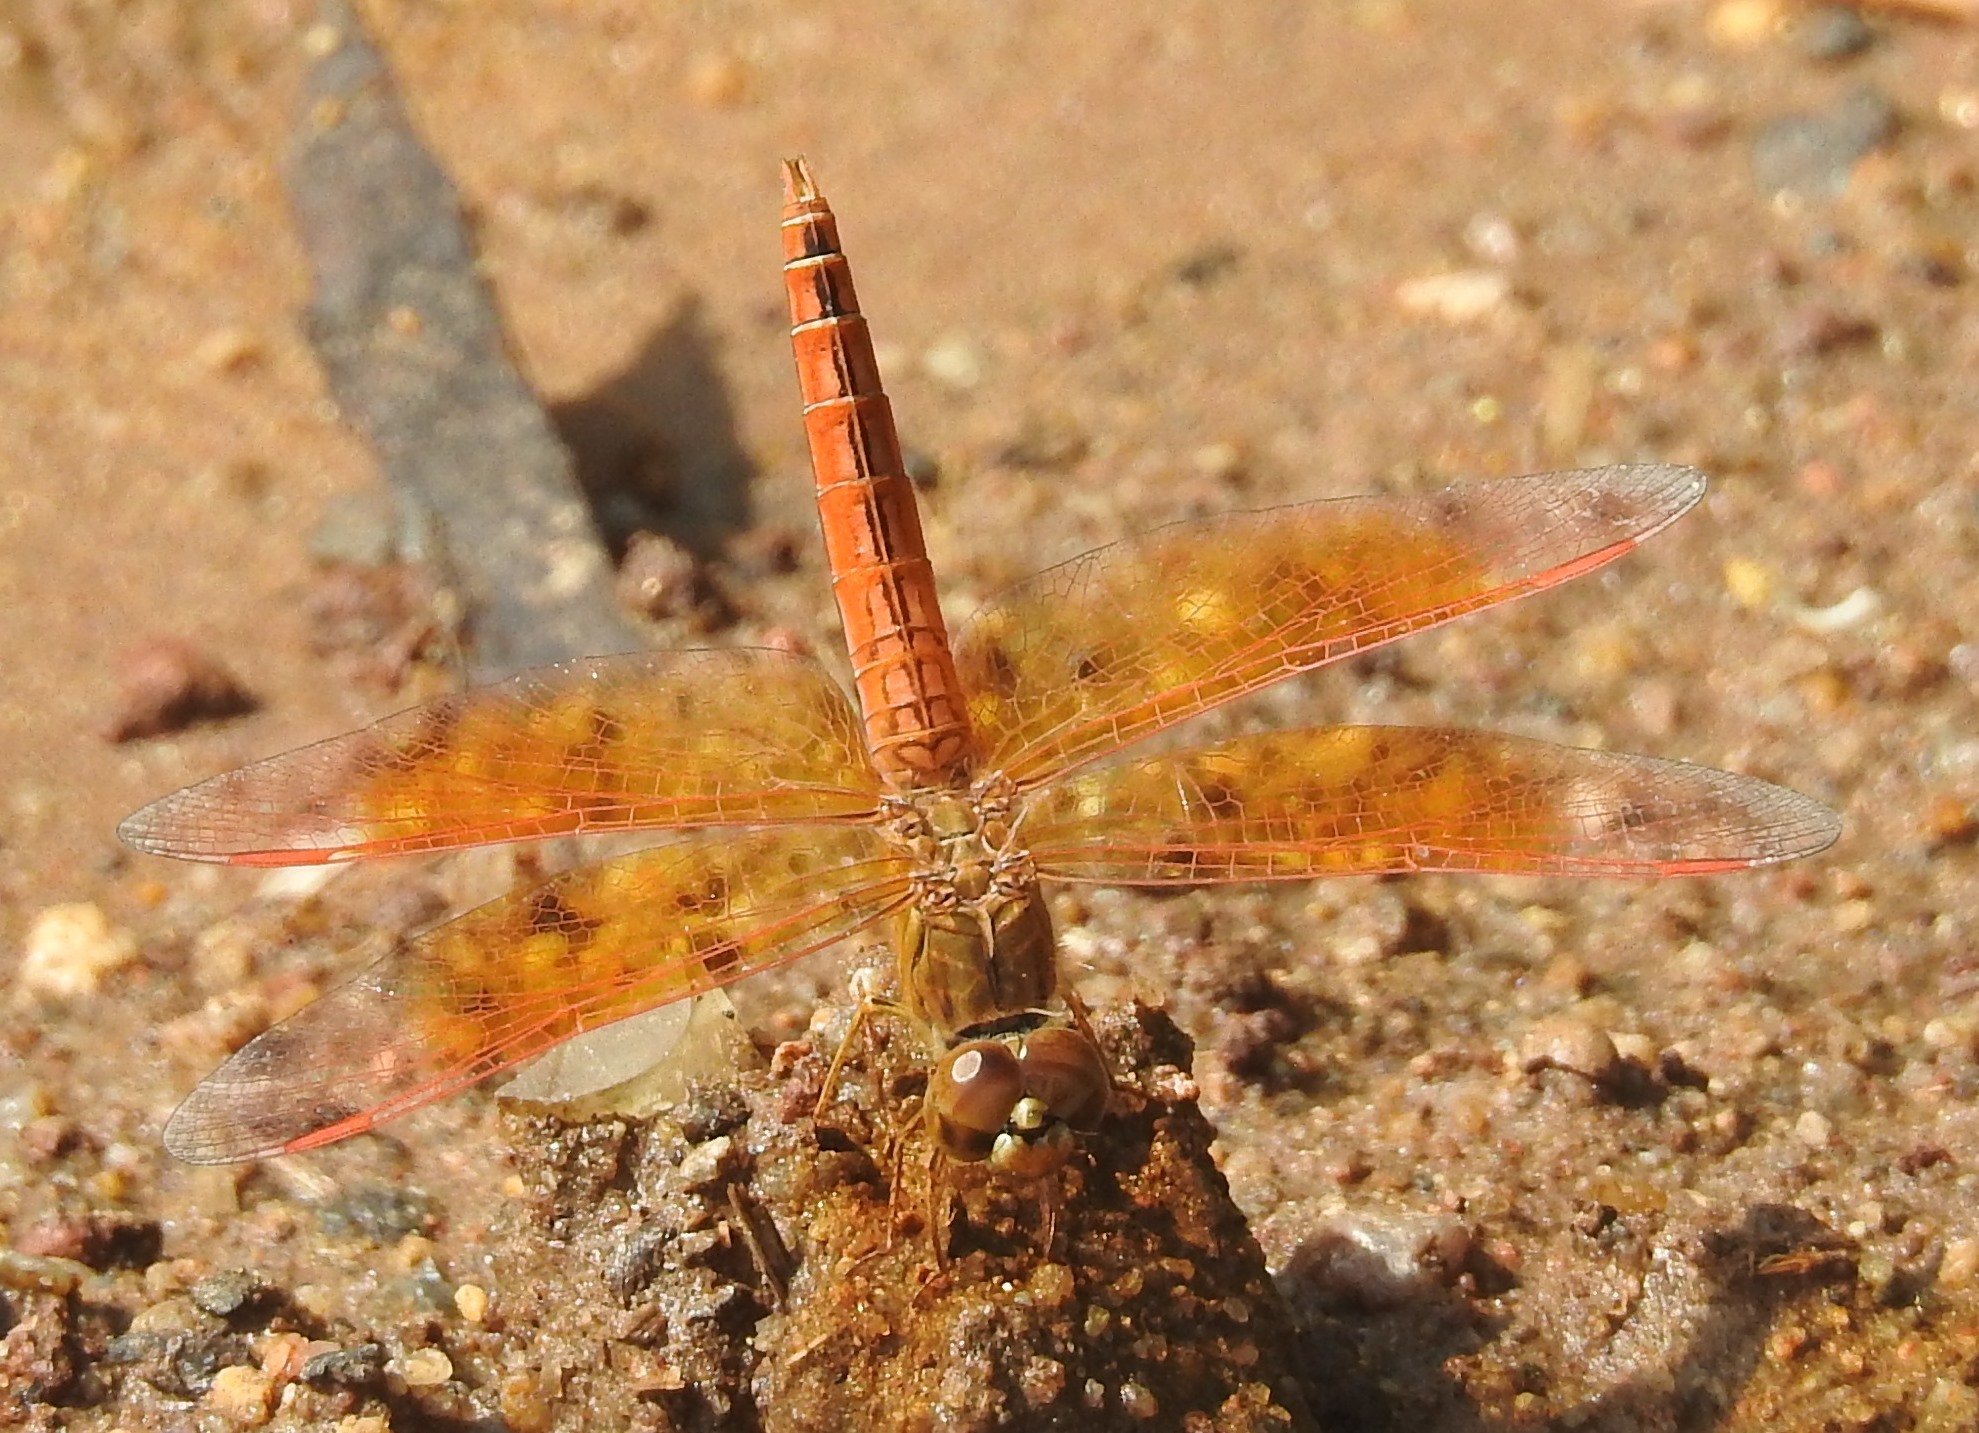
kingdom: Animalia
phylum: Arthropoda
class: Insecta
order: Odonata
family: Libellulidae
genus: Brachythemis
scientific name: Brachythemis contaminata
